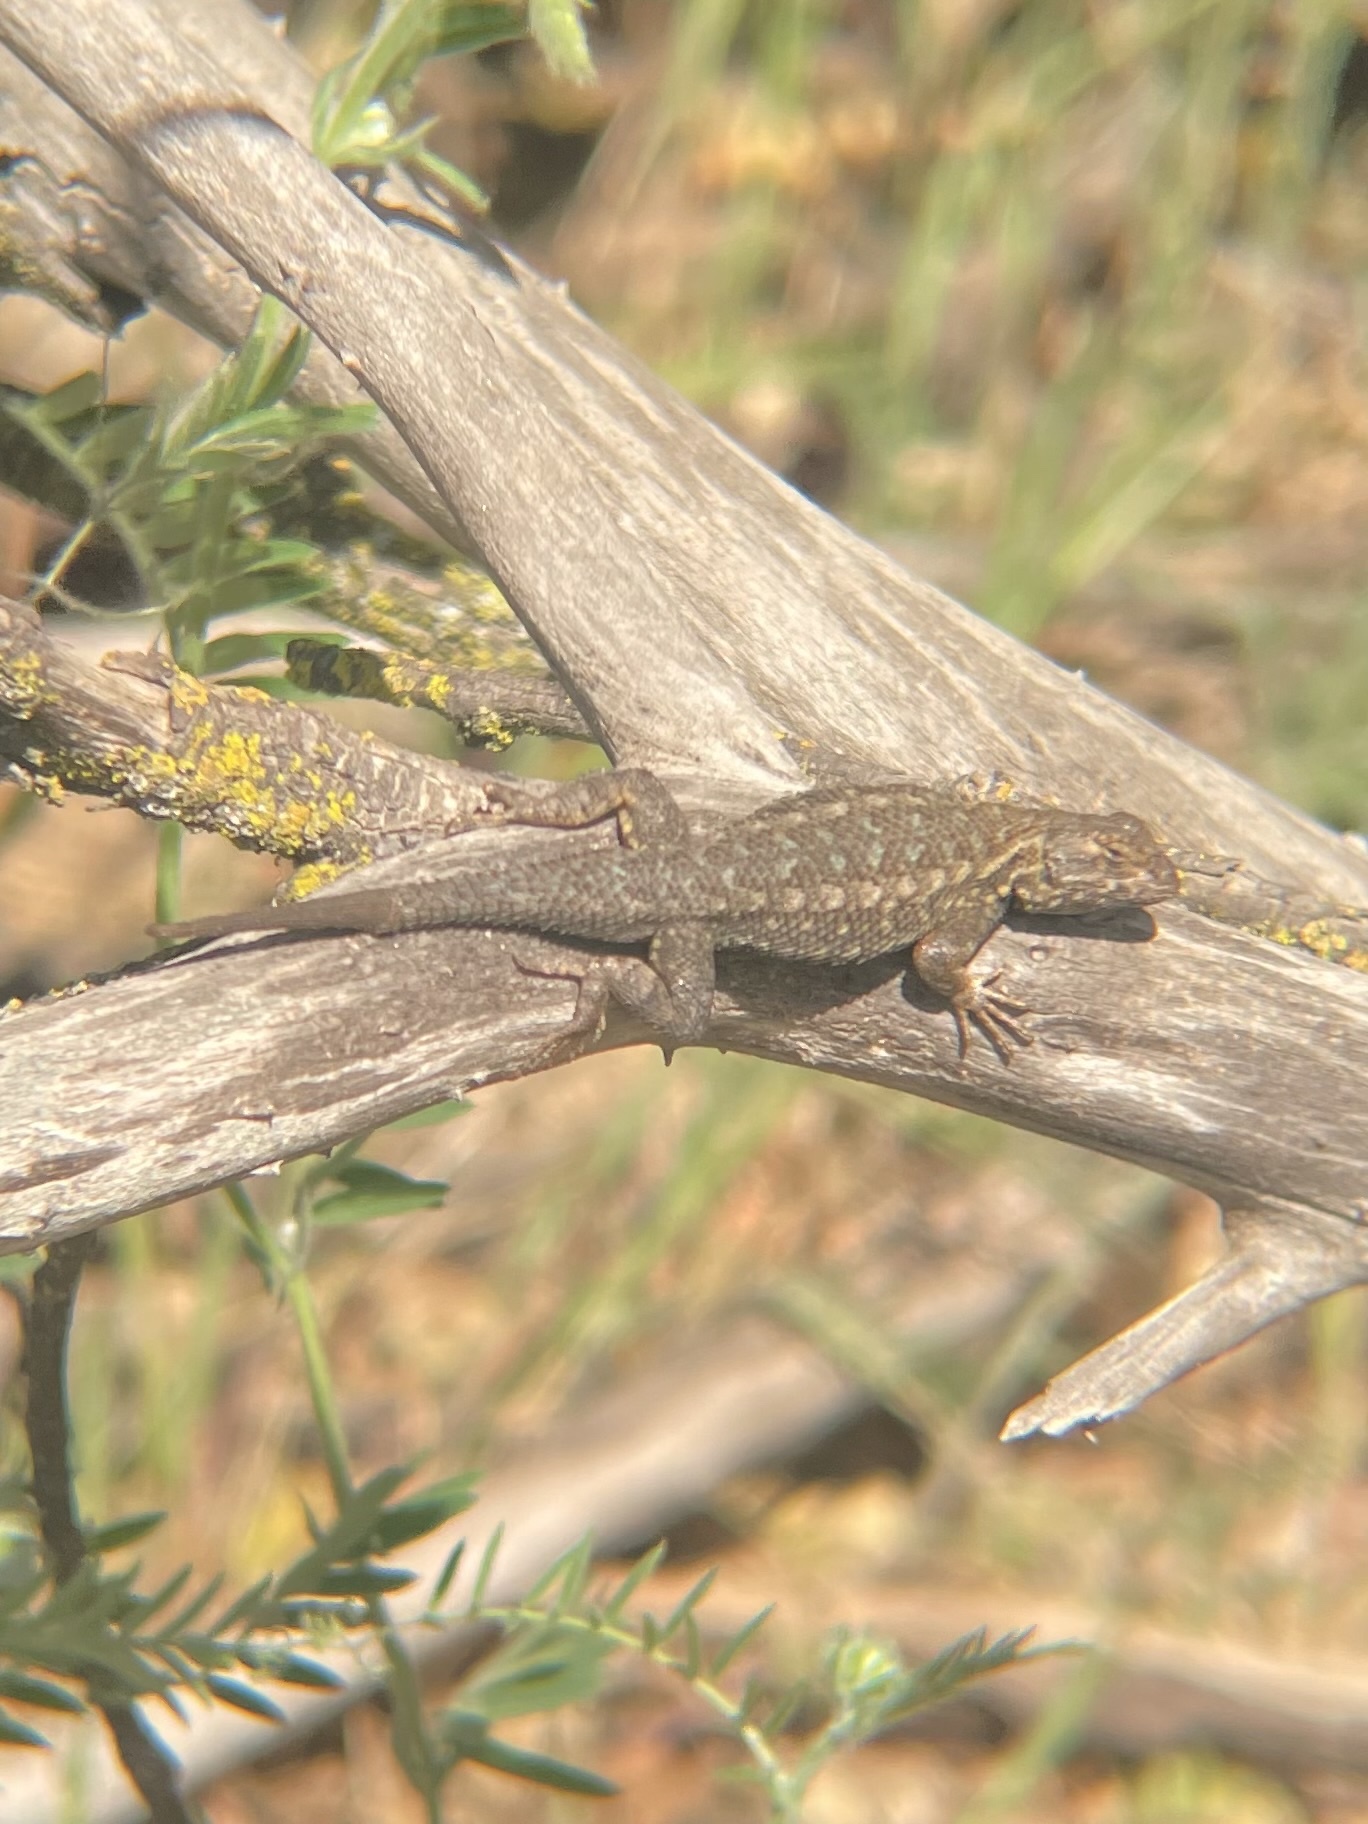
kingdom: Animalia
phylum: Chordata
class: Squamata
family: Phrynosomatidae
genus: Sceloporus
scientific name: Sceloporus occidentalis
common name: Western fence lizard
